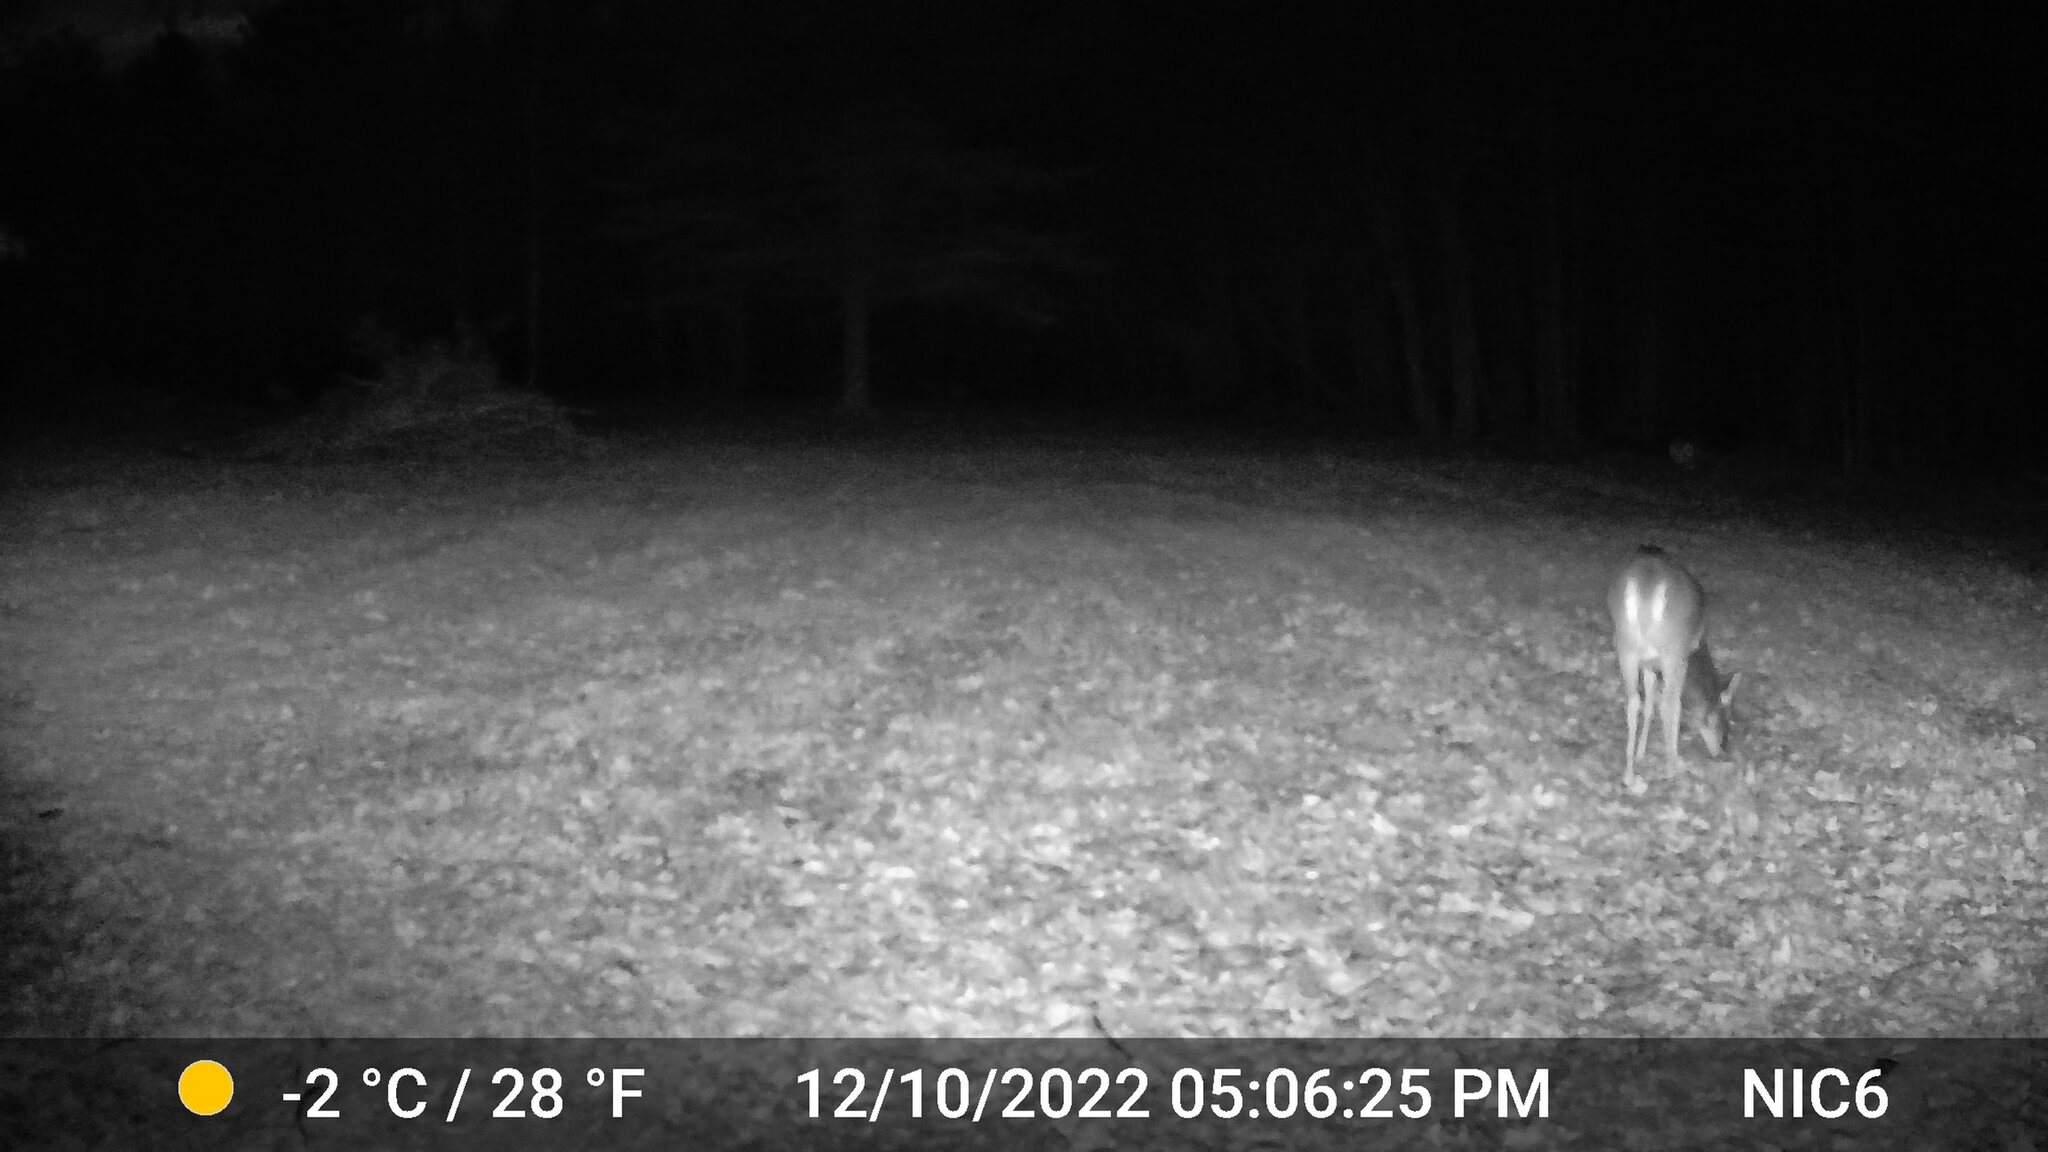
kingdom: Animalia
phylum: Chordata
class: Mammalia
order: Artiodactyla
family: Cervidae
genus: Odocoileus
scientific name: Odocoileus virginianus
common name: White-tailed deer
